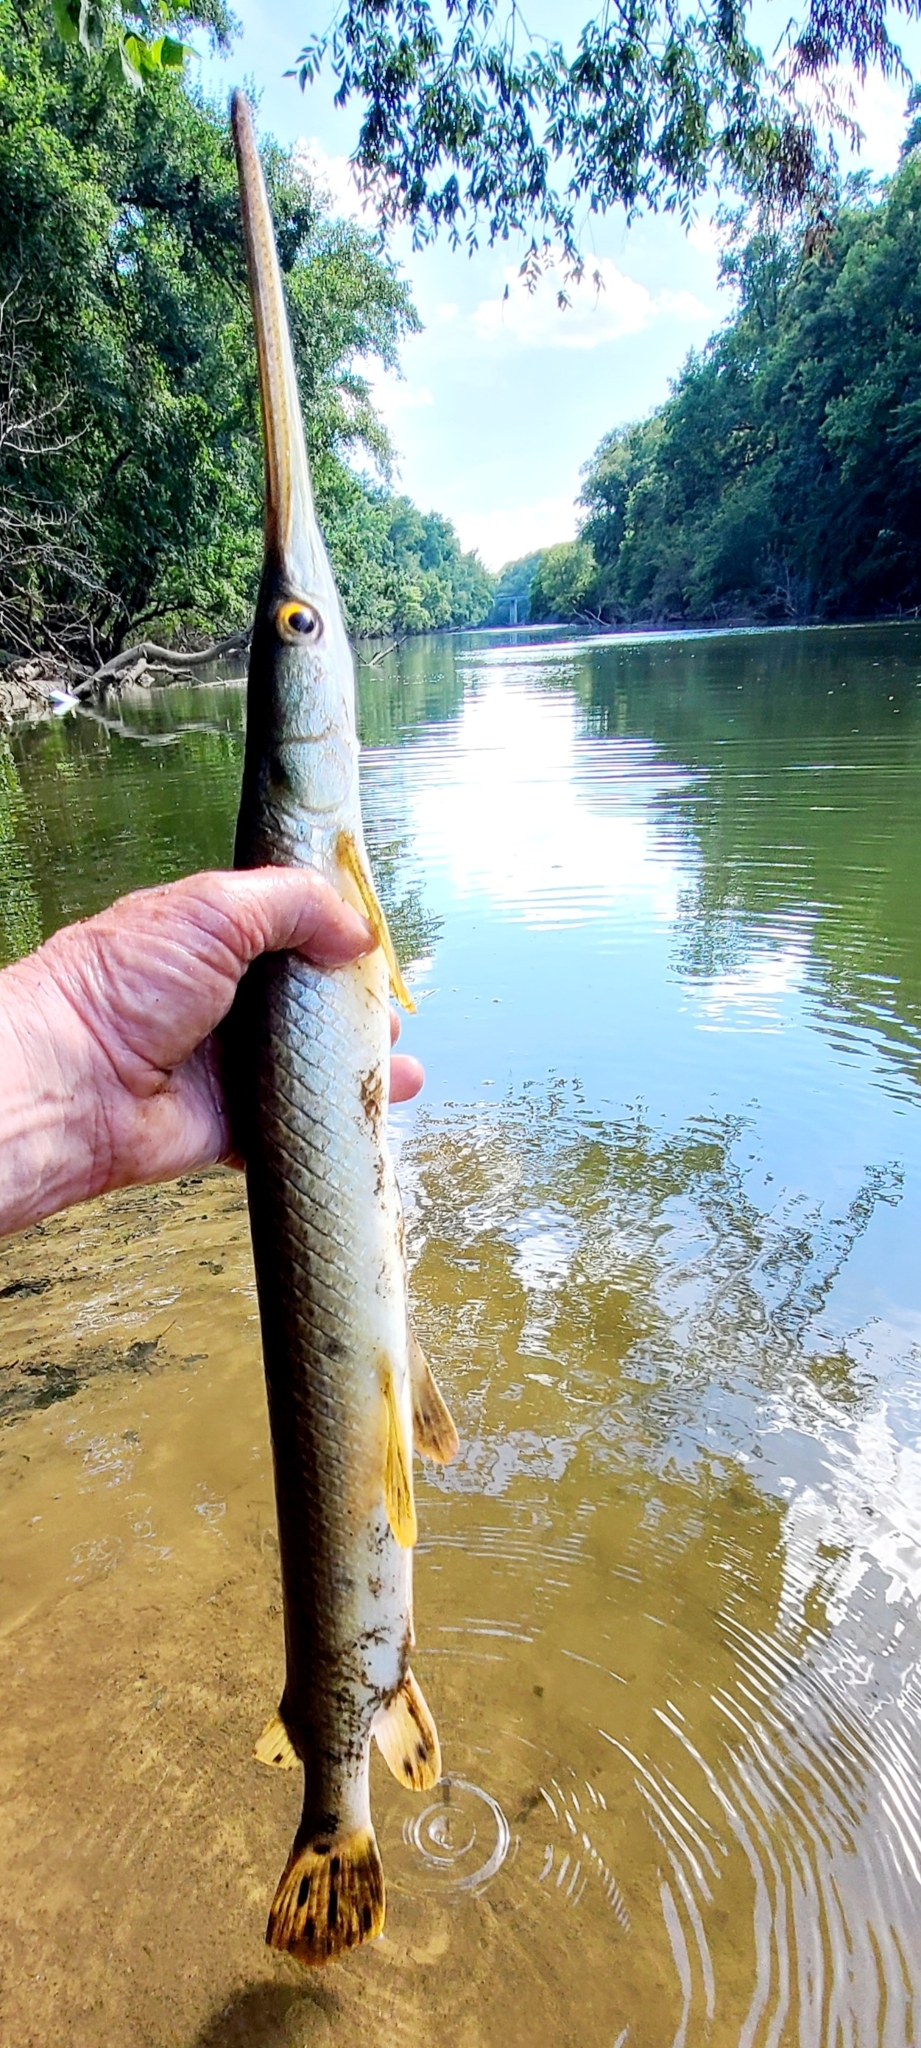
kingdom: Animalia
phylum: Chordata
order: Lepisosteiformes
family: Lepisosteidae
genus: Lepisosteus
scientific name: Lepisosteus osseus
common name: Longnose gar
